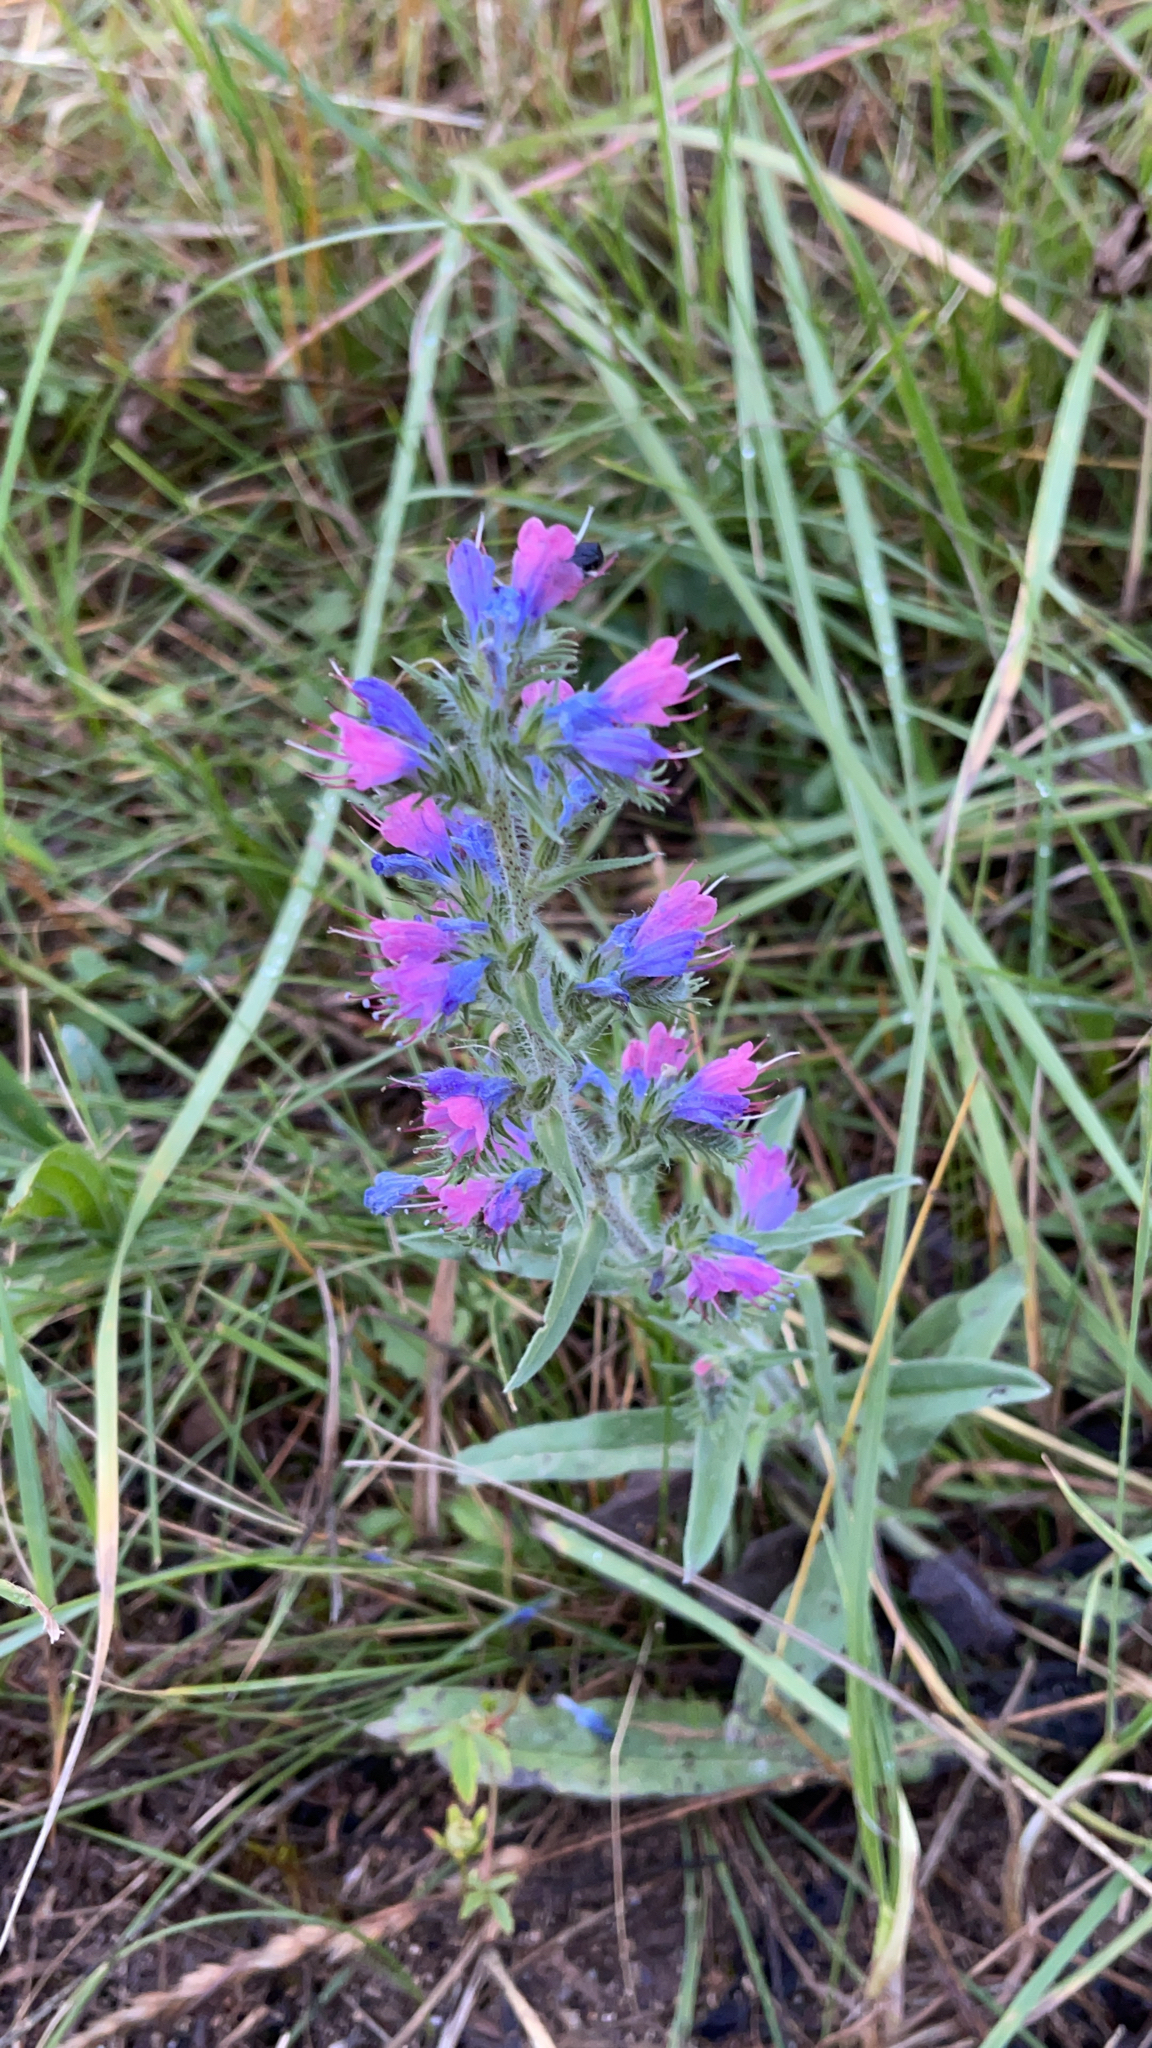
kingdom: Plantae
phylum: Tracheophyta
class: Magnoliopsida
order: Boraginales
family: Boraginaceae
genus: Echium
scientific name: Echium vulgare
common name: Common viper's bugloss
